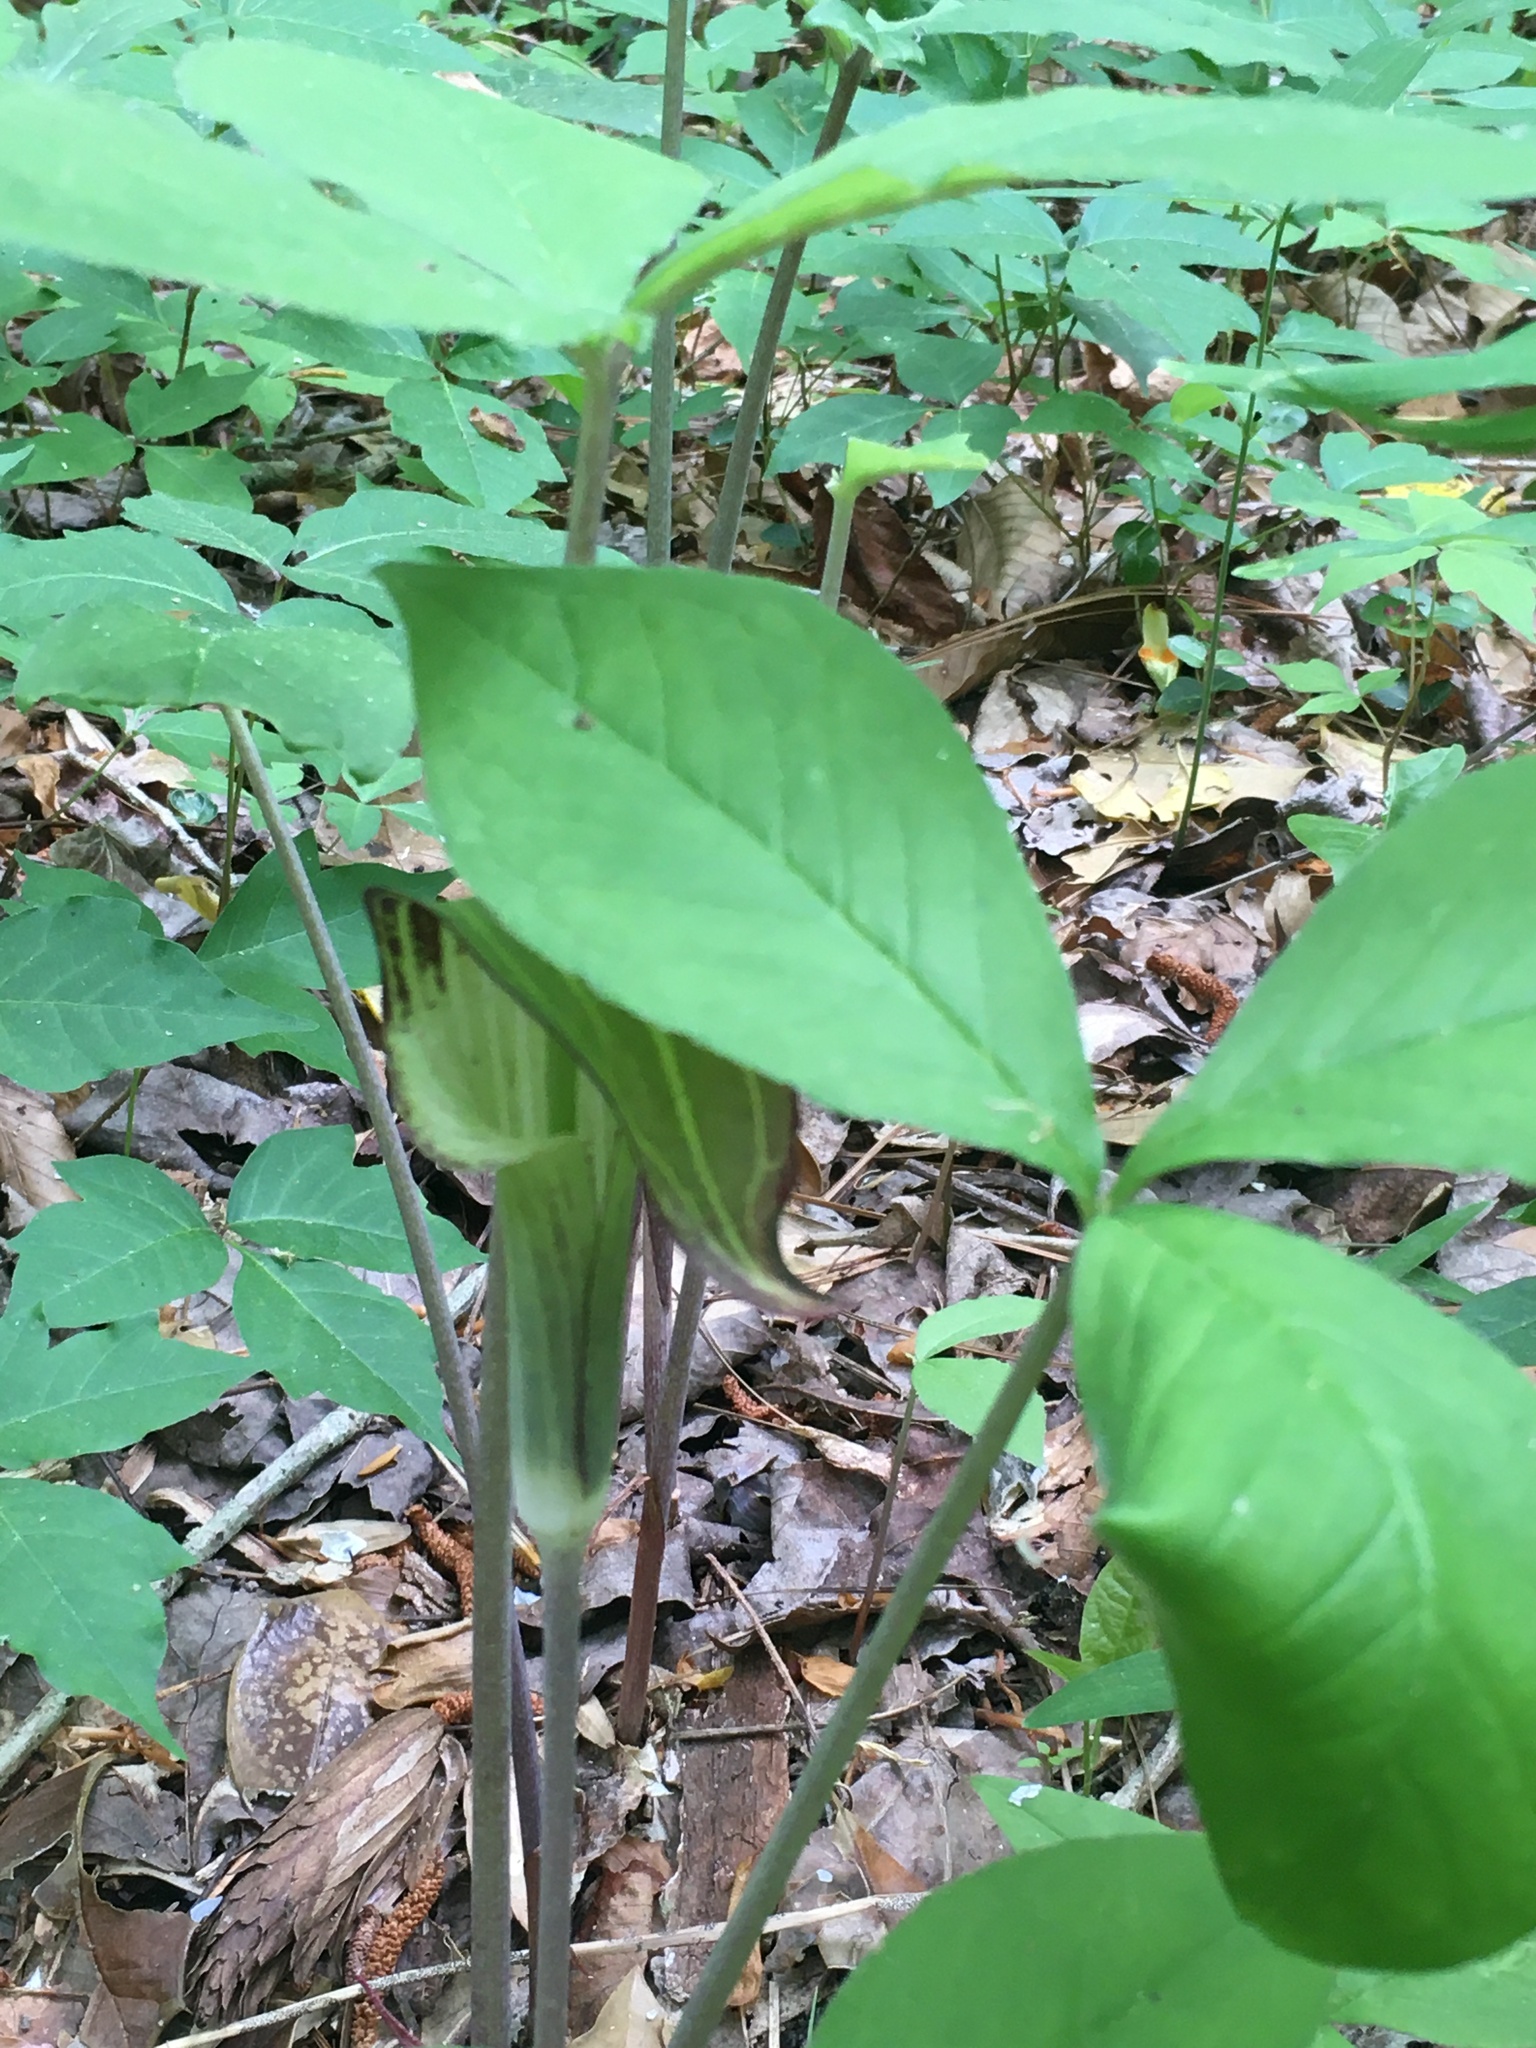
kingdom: Plantae
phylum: Tracheophyta
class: Liliopsida
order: Alismatales
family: Araceae
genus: Arisaema
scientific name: Arisaema triphyllum
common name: Jack-in-the-pulpit
